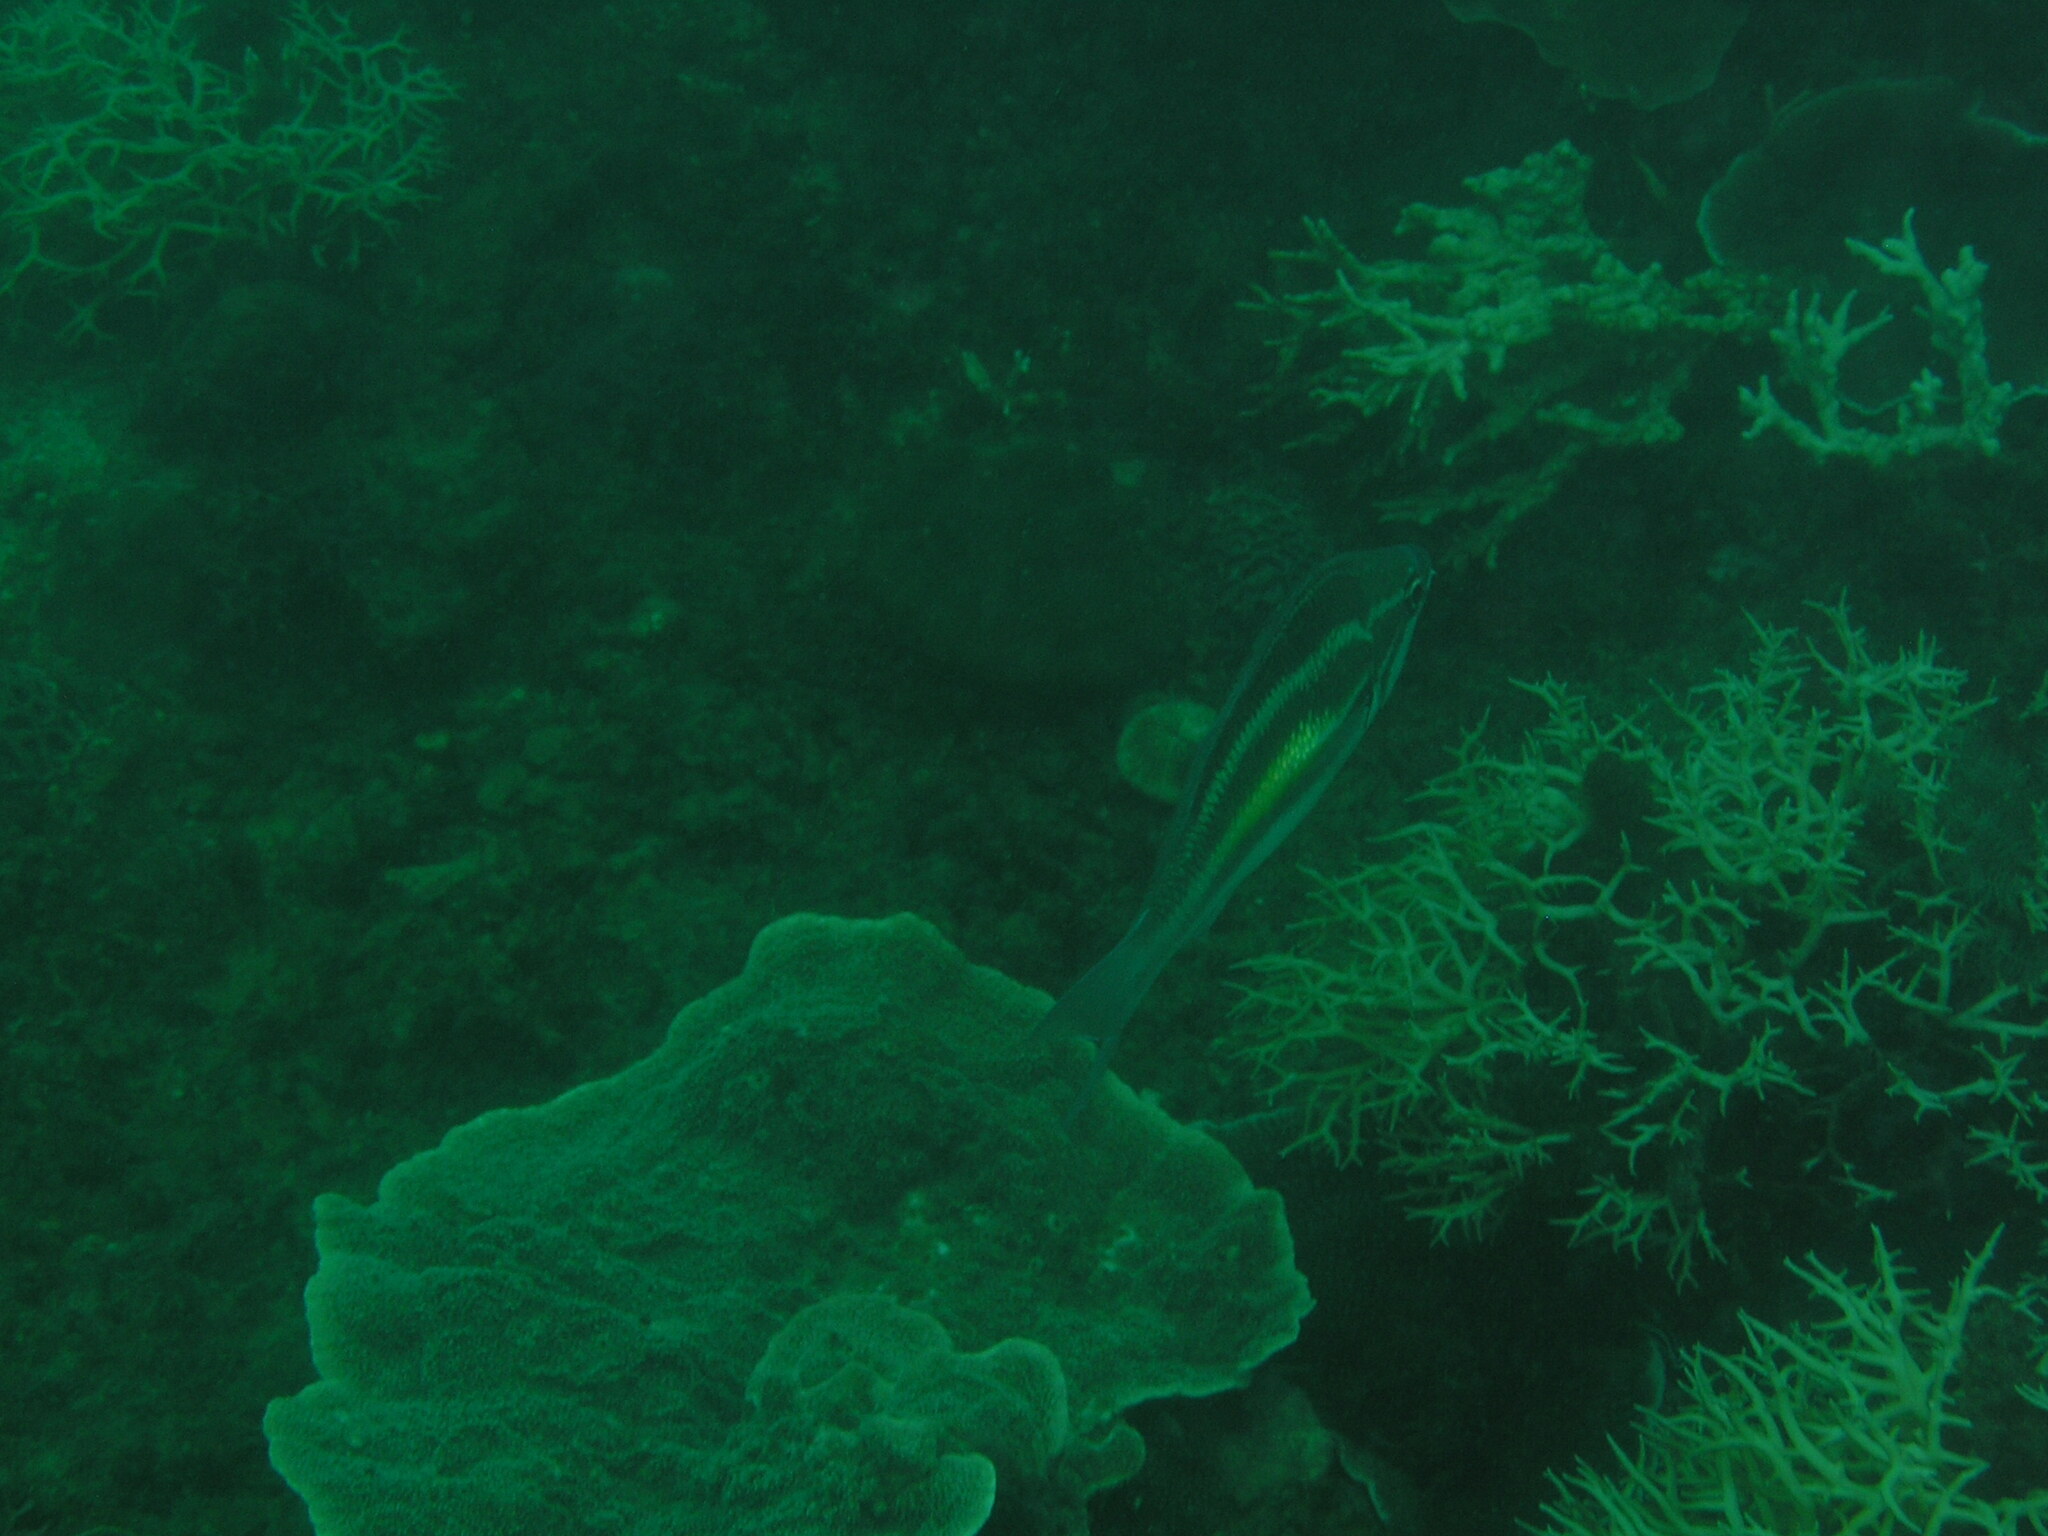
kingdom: Animalia
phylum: Chordata
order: Perciformes
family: Nemipteridae
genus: Pentapodus
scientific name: Pentapodus trivittatus
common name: Three-striped whiptail
